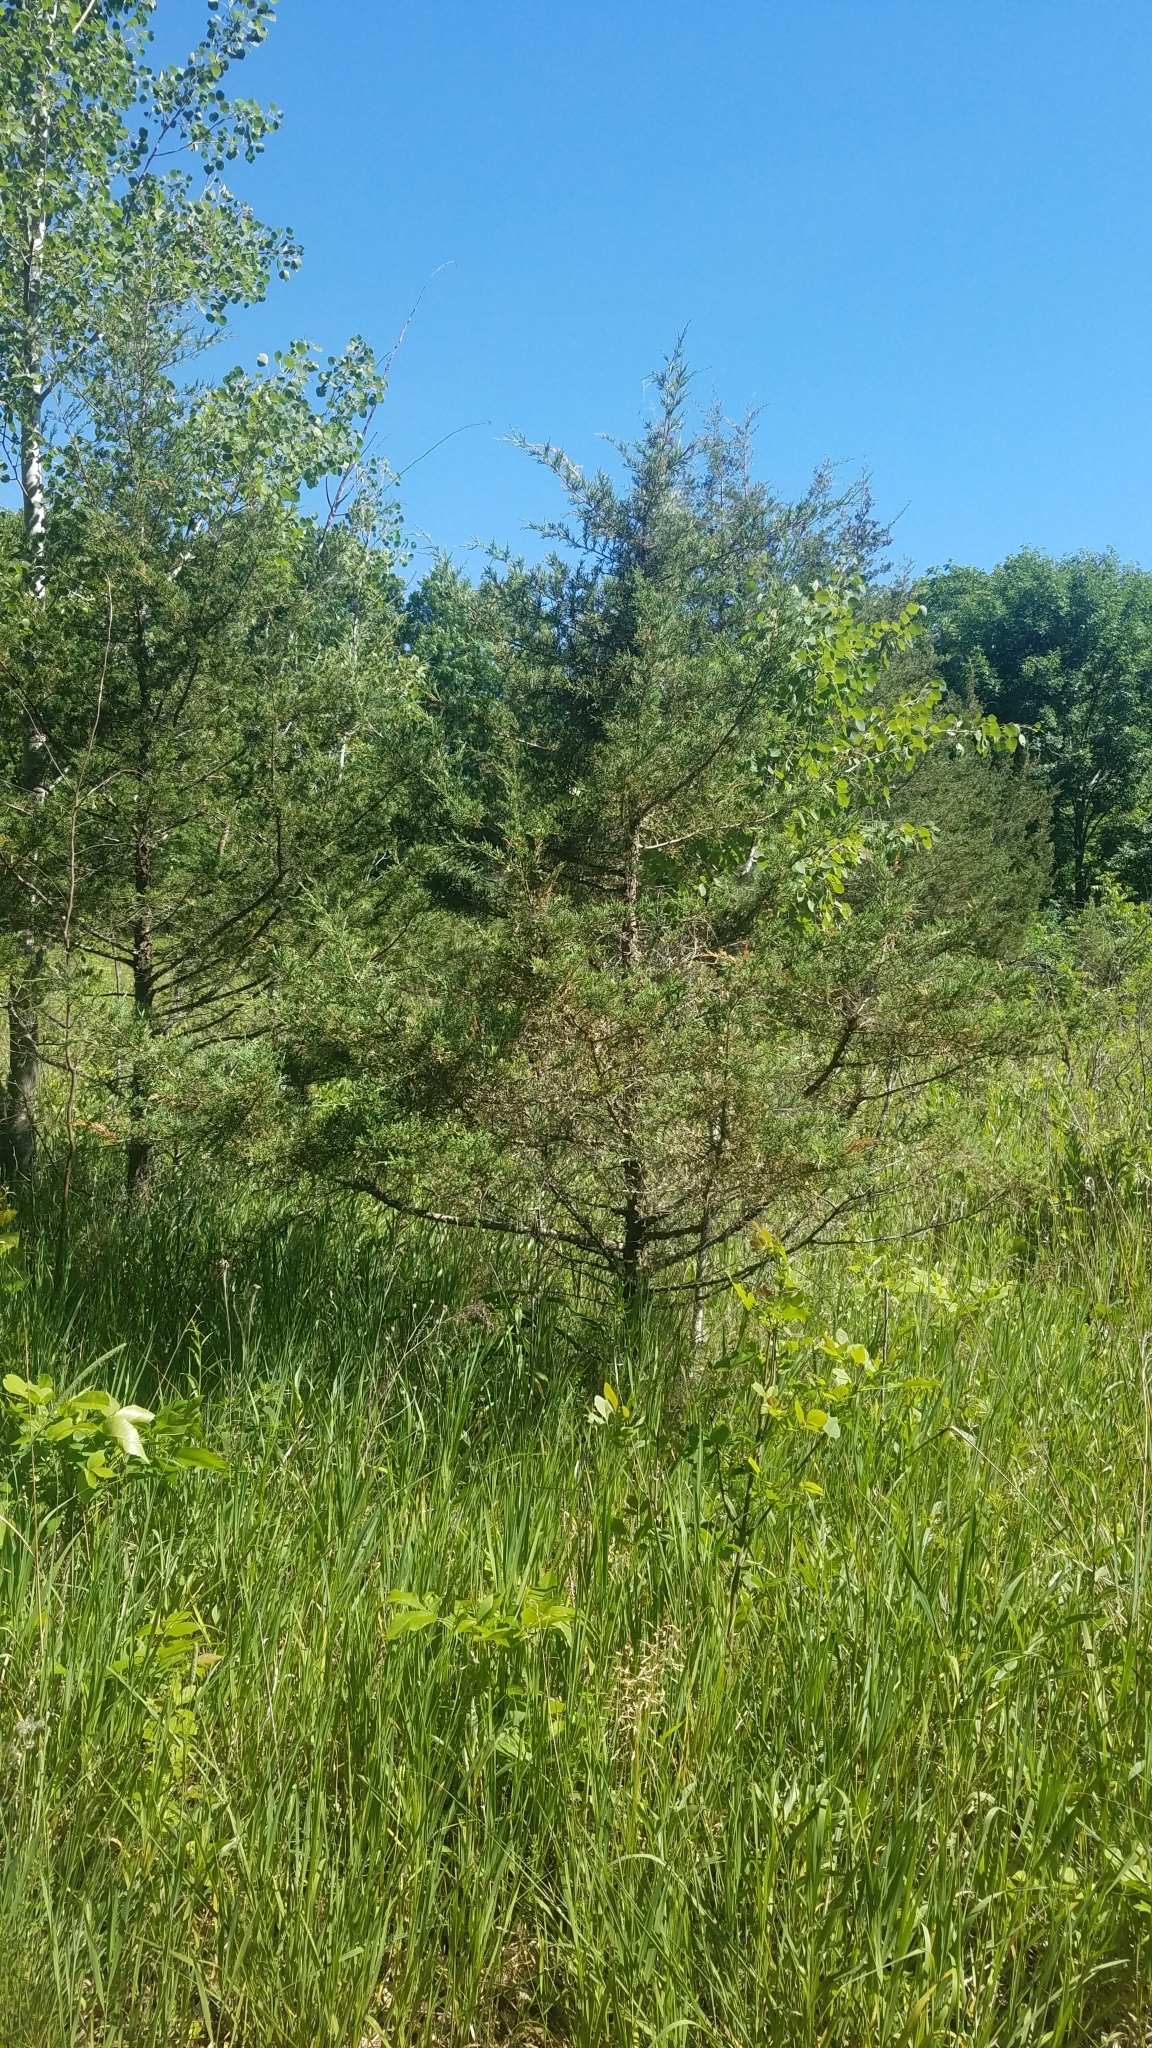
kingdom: Plantae
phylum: Tracheophyta
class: Pinopsida
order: Pinales
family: Cupressaceae
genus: Juniperus
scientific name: Juniperus virginiana
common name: Red juniper
